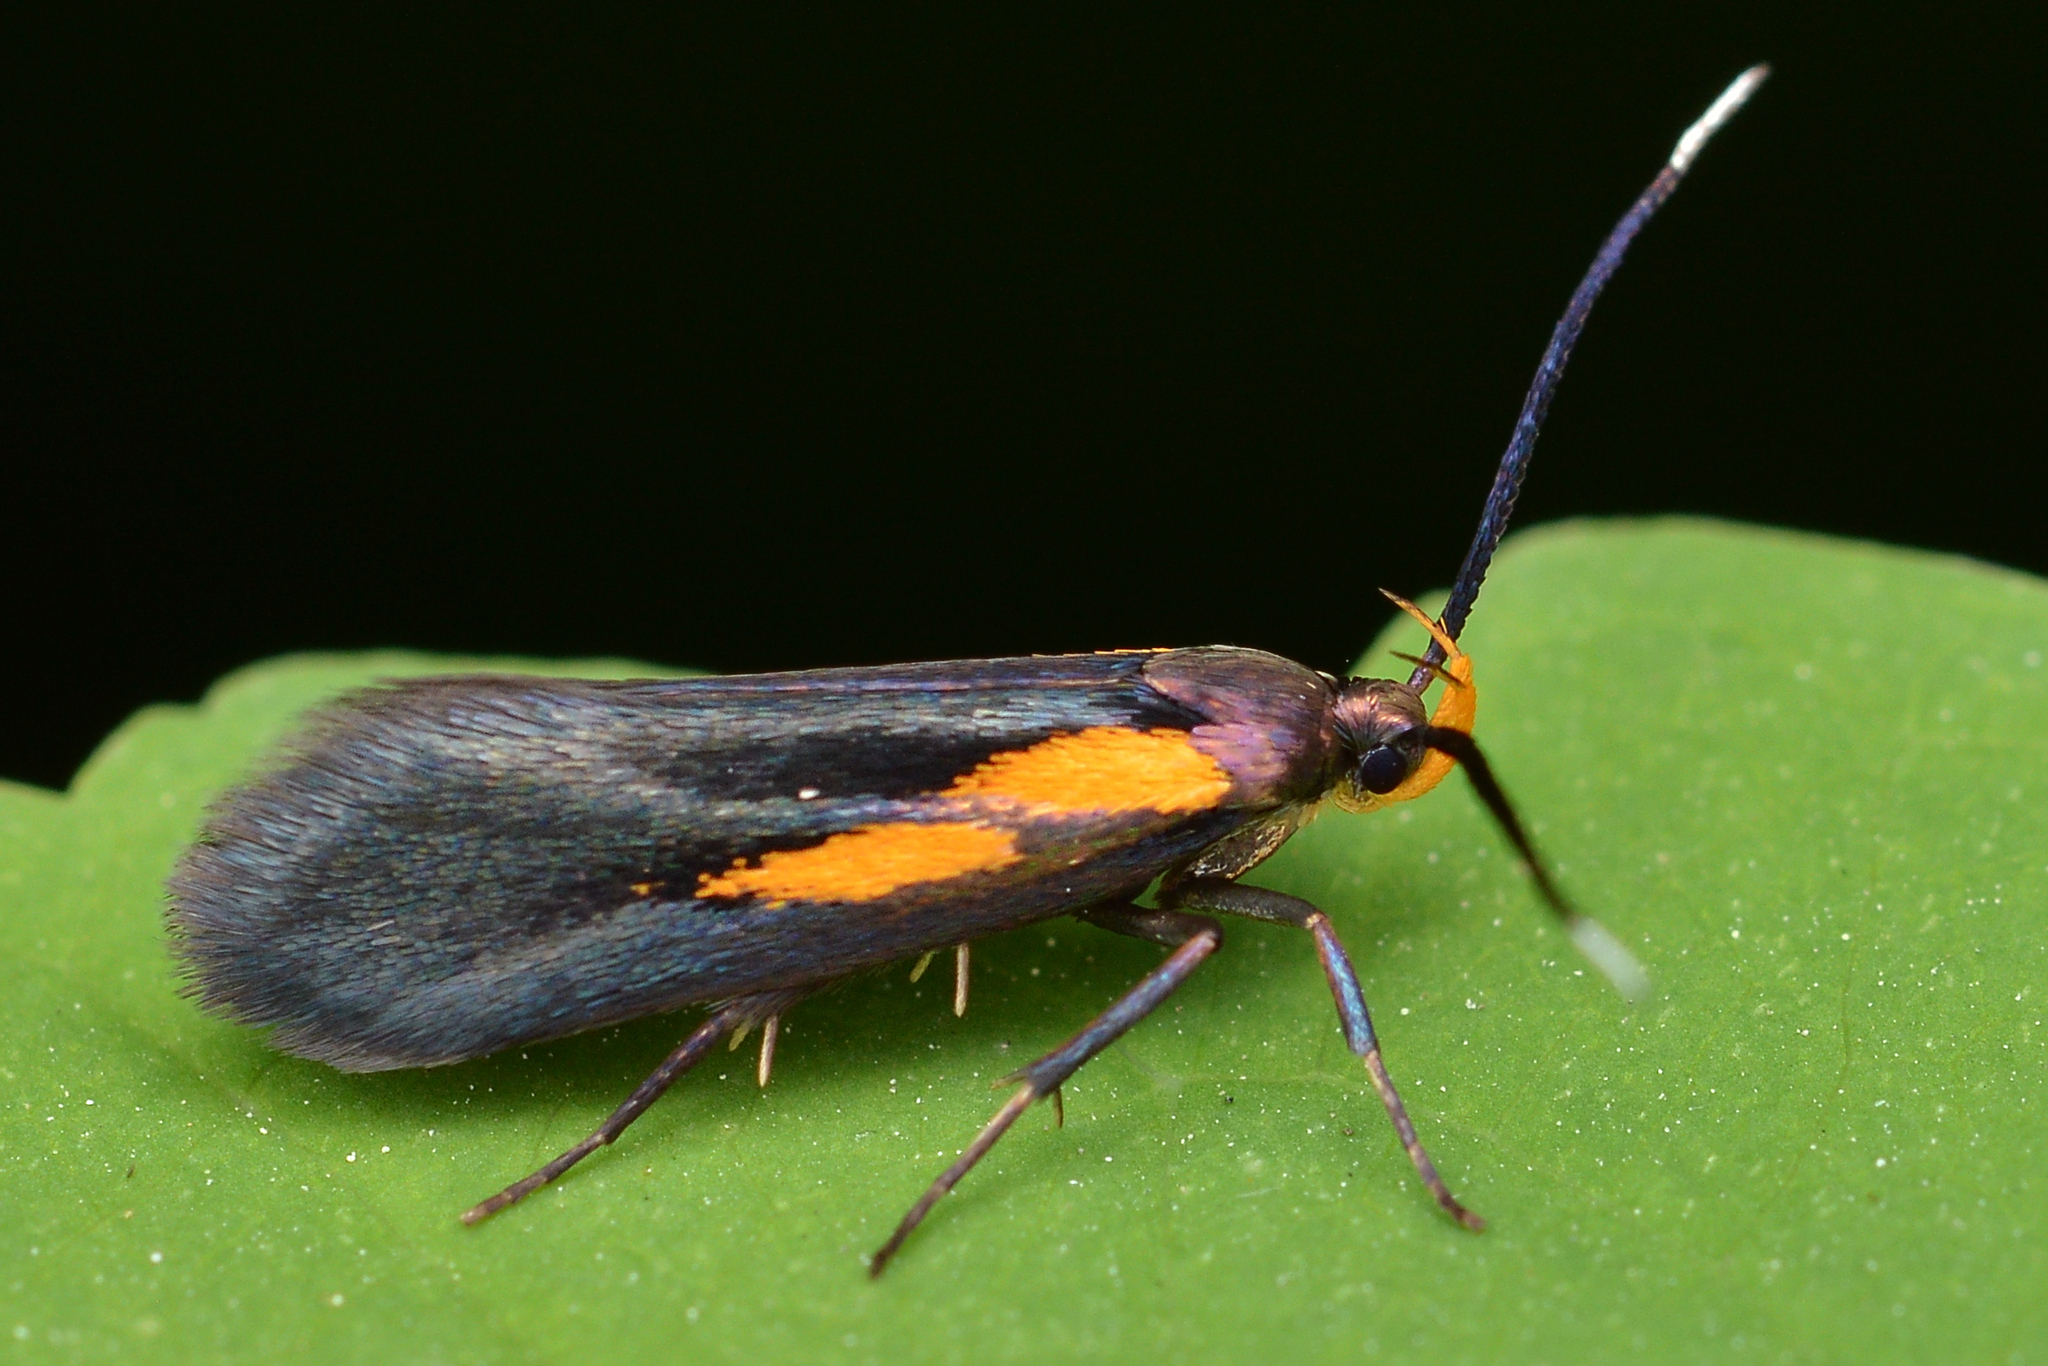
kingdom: Animalia
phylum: Arthropoda
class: Insecta
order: Lepidoptera
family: Oecophoridae
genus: Mathildana
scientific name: Mathildana newmanella
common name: Newman's mathildana moth
